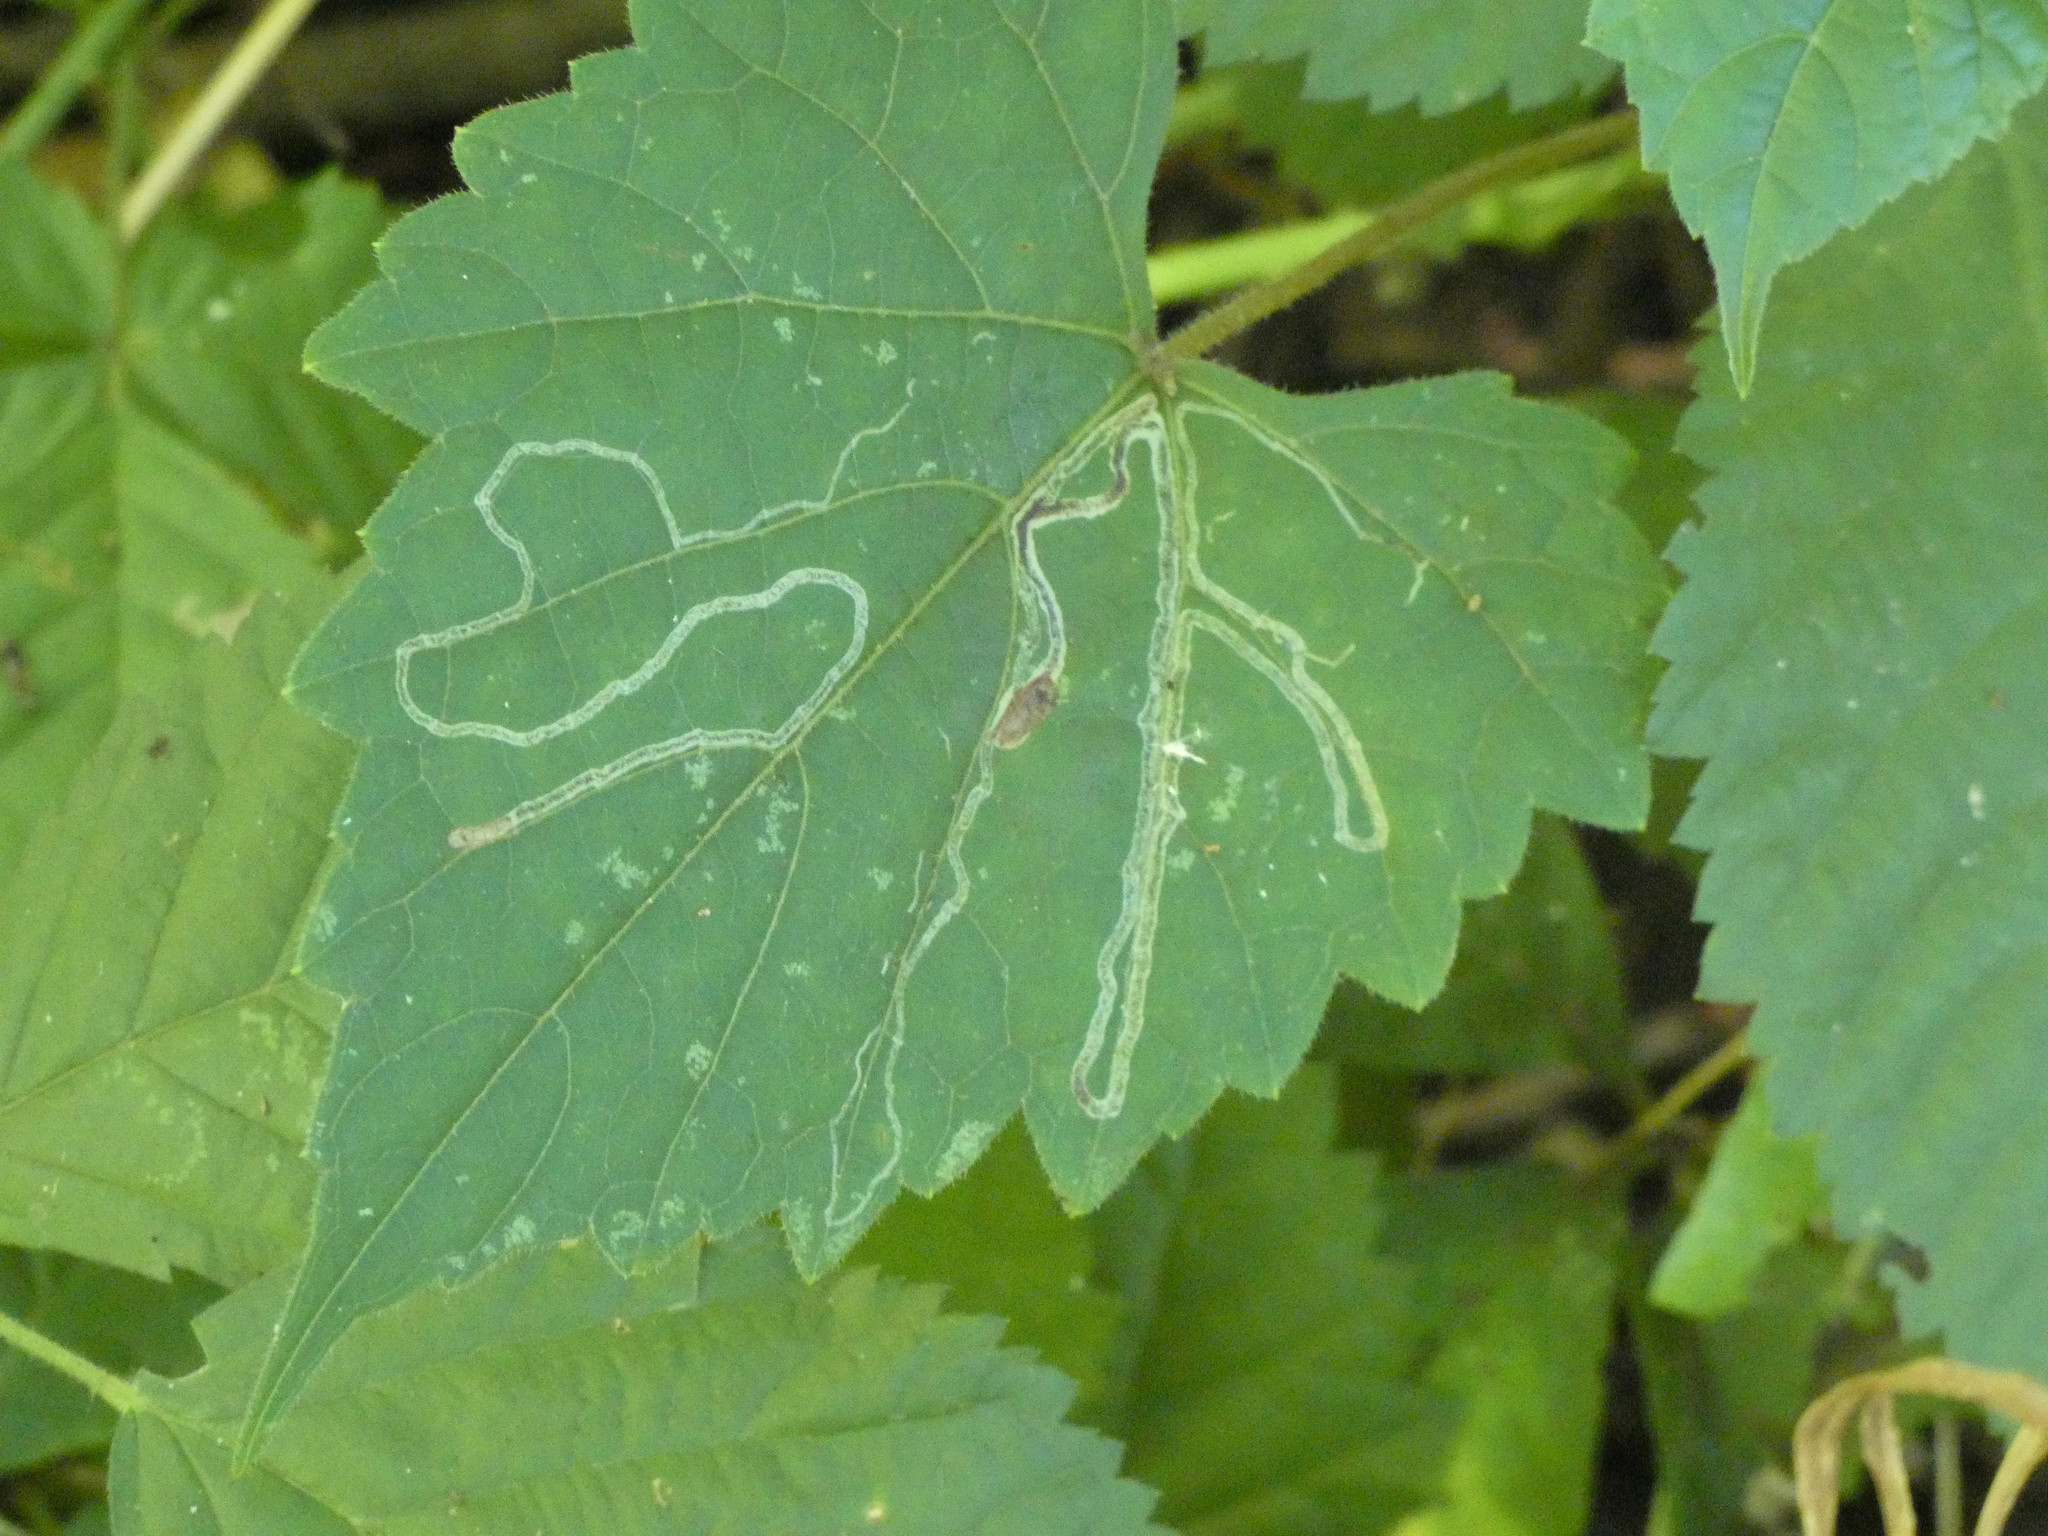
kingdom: Animalia
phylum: Arthropoda
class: Insecta
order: Lepidoptera
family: Gracillariidae
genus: Phyllocnistis
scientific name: Phyllocnistis vitifoliella
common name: Grape leaf-miner moth
